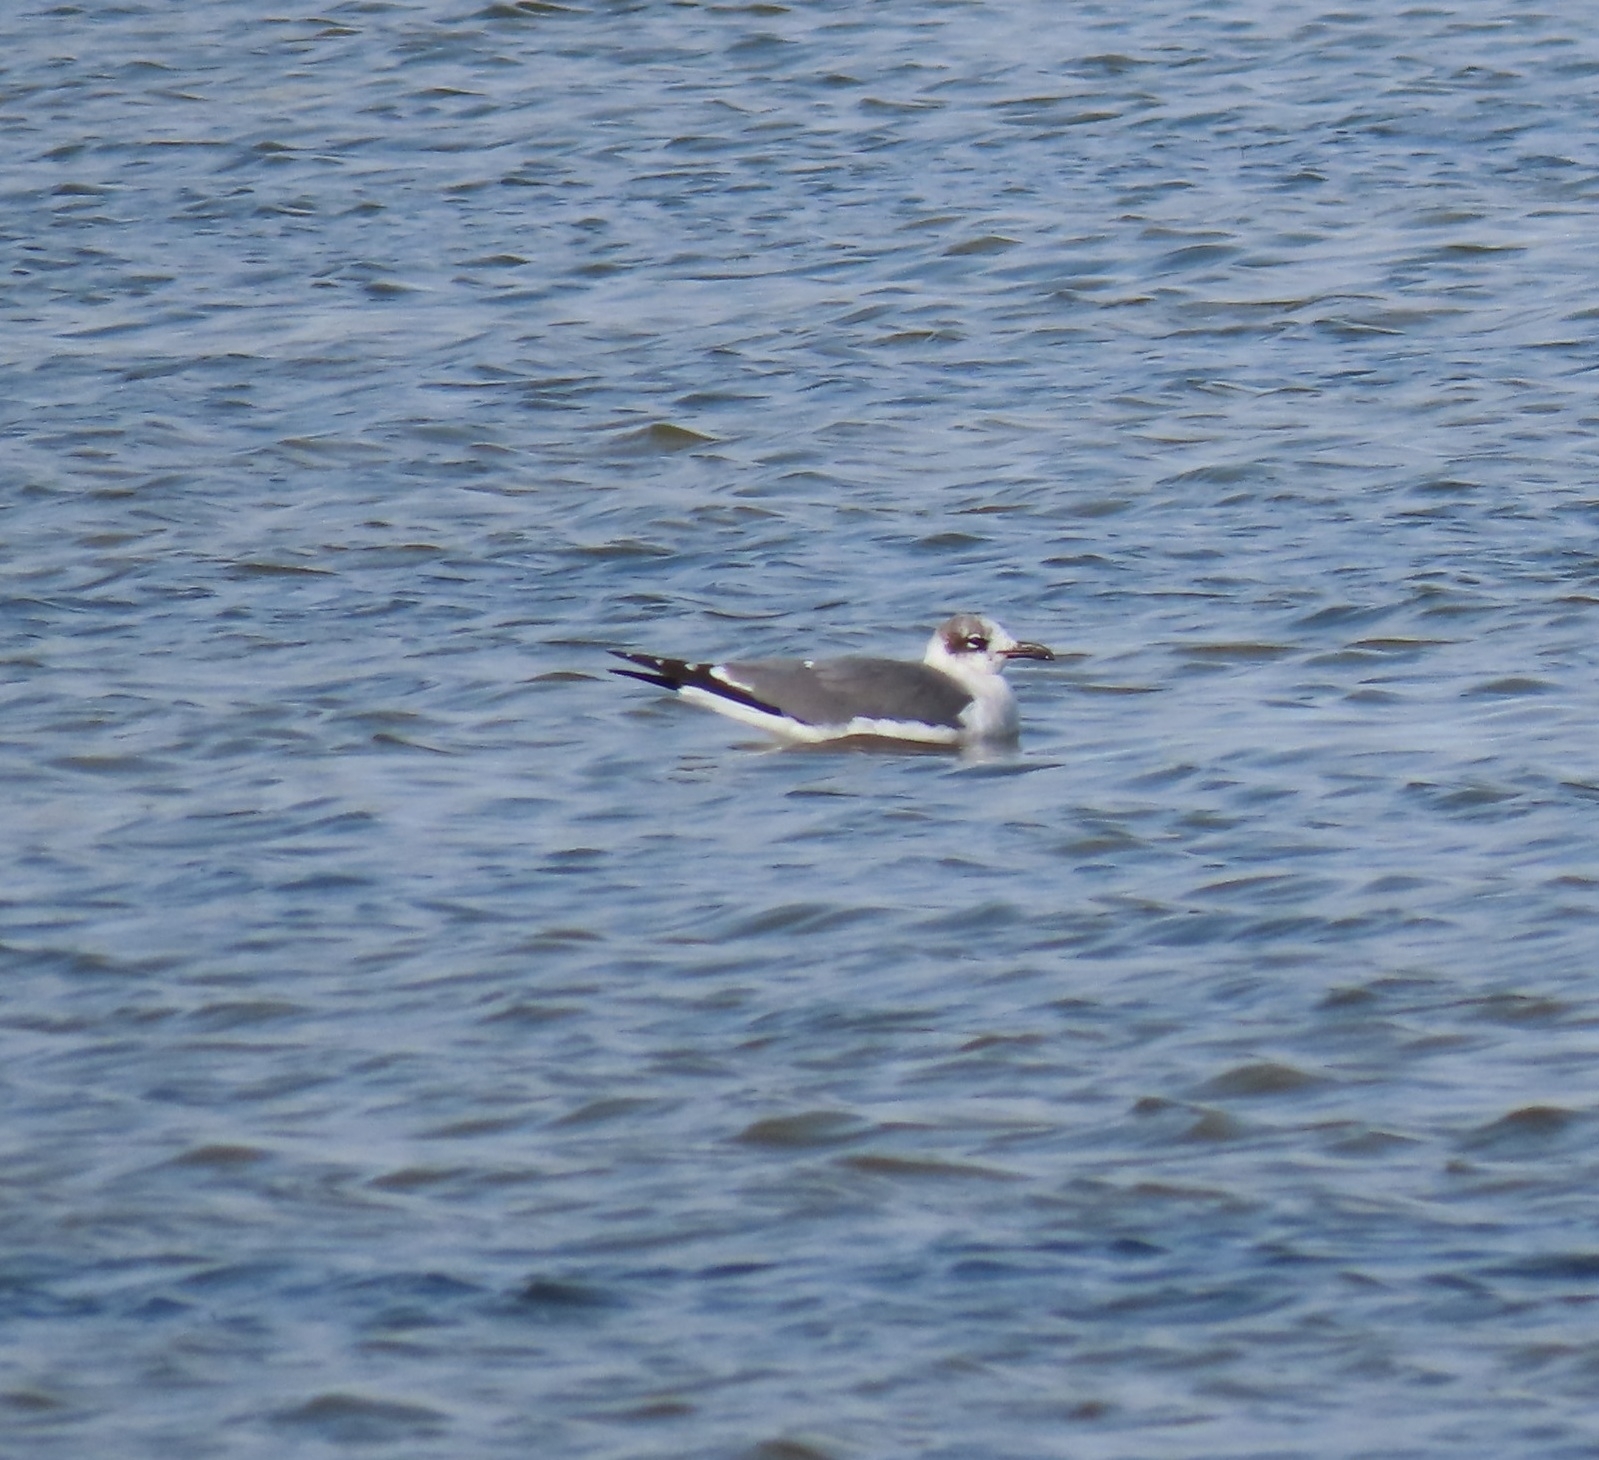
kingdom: Animalia
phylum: Chordata
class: Aves
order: Charadriiformes
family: Laridae
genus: Leucophaeus
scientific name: Leucophaeus atricilla
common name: Laughing gull
